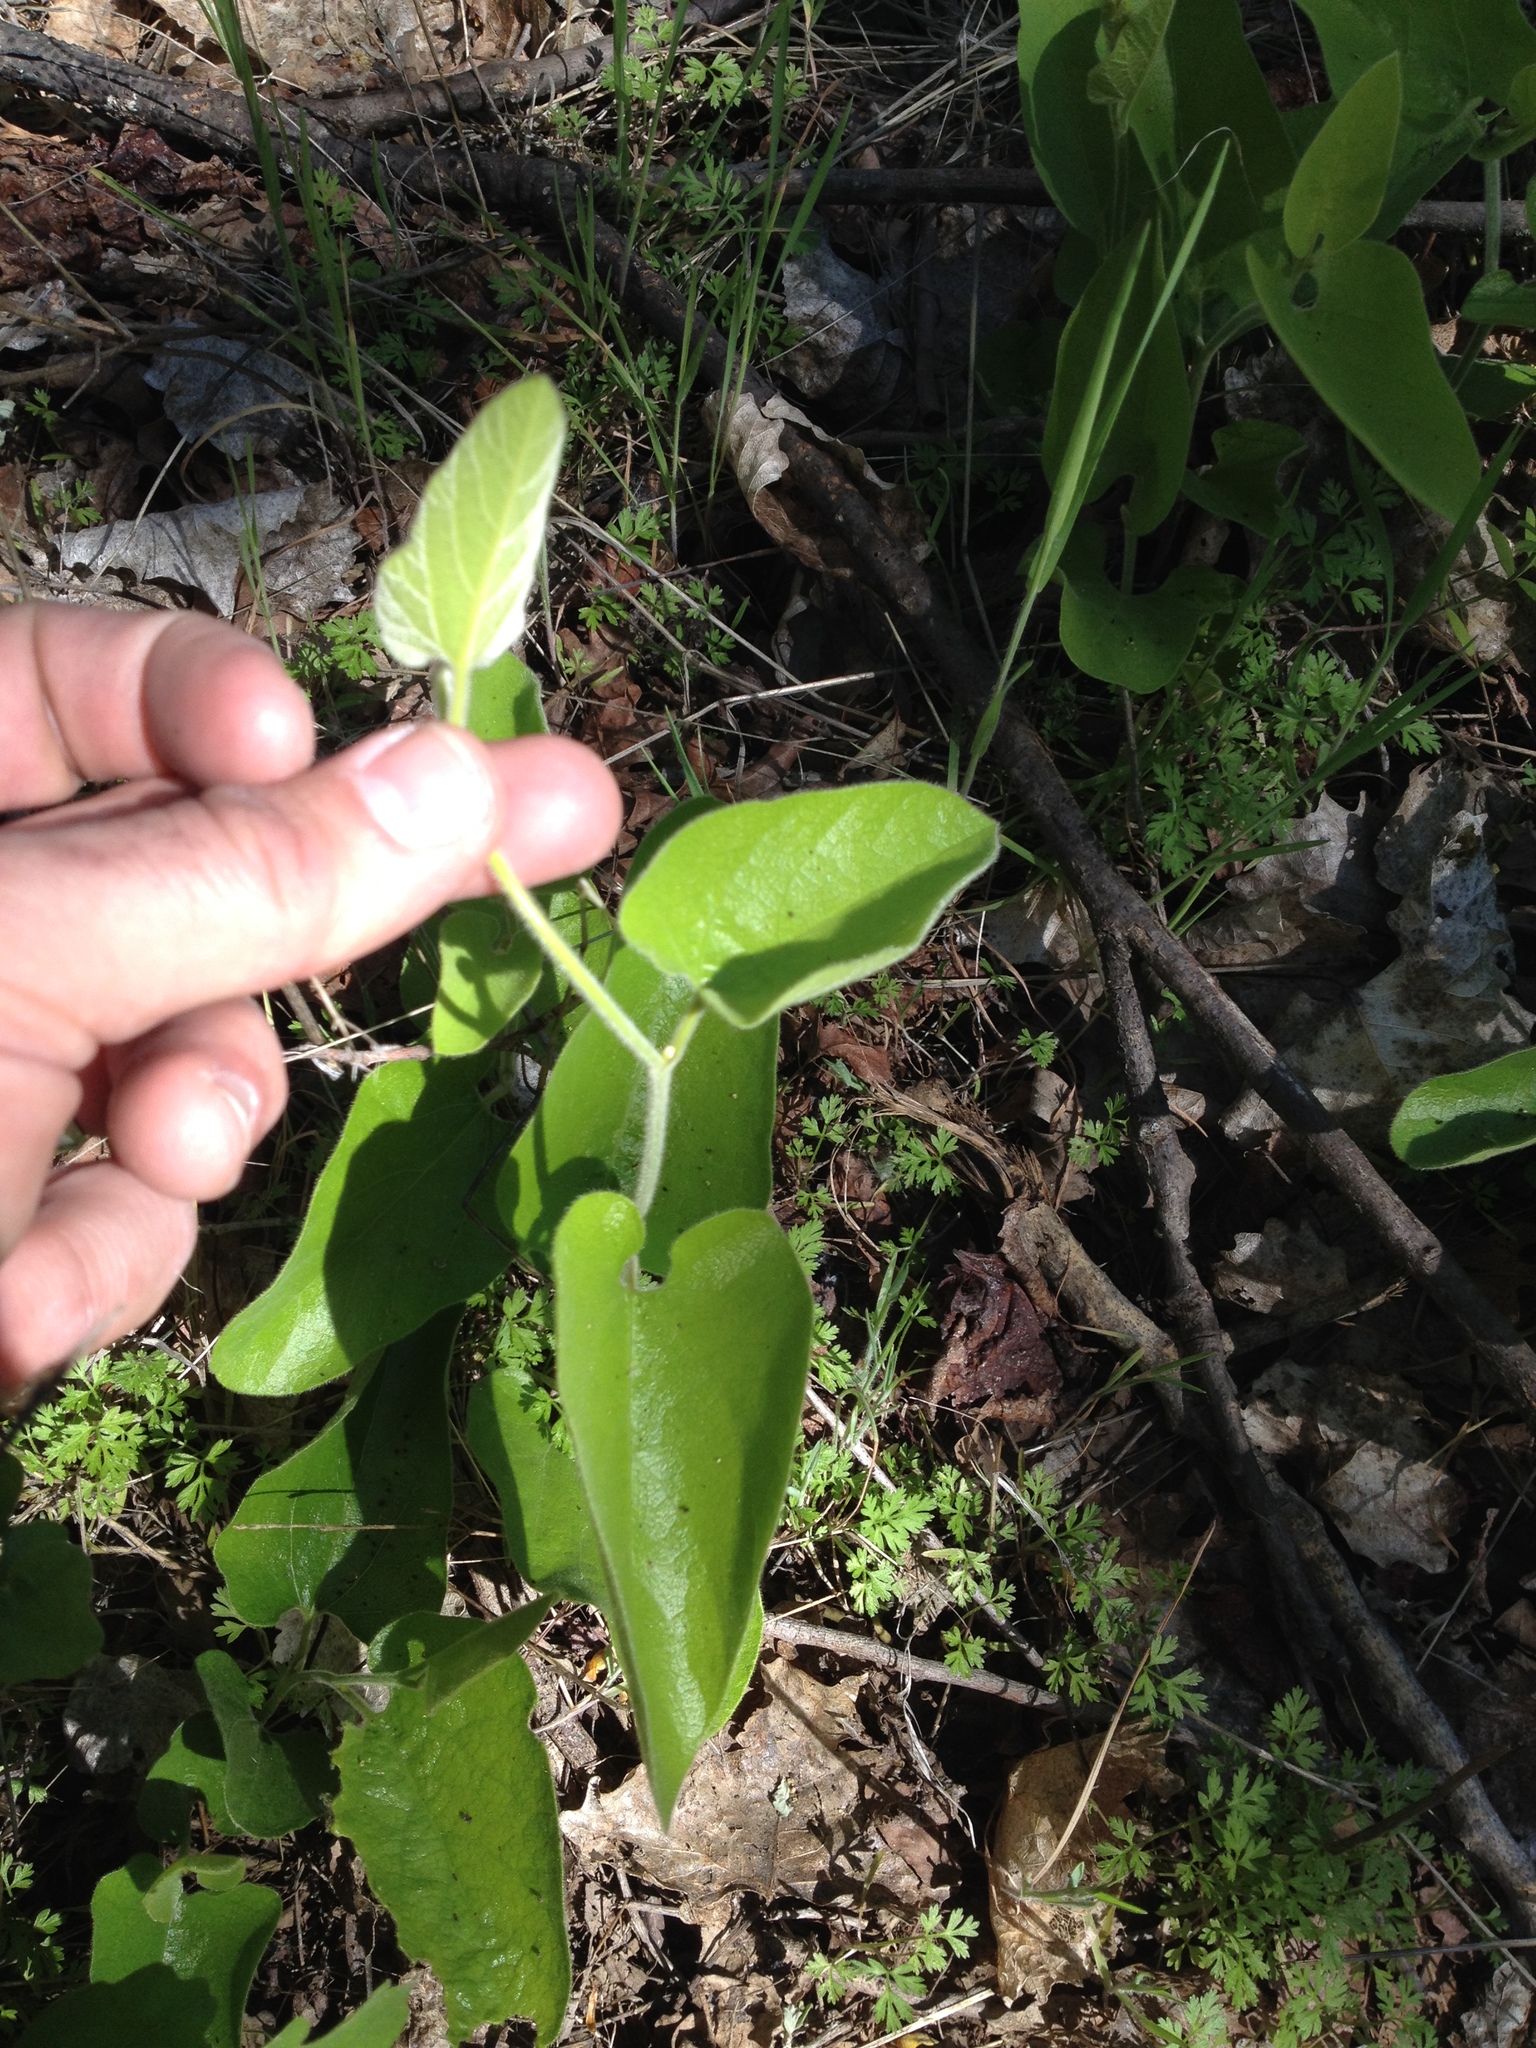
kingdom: Plantae
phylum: Tracheophyta
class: Magnoliopsida
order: Piperales
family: Aristolochiaceae
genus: Isotrema
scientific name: Isotrema californicum
